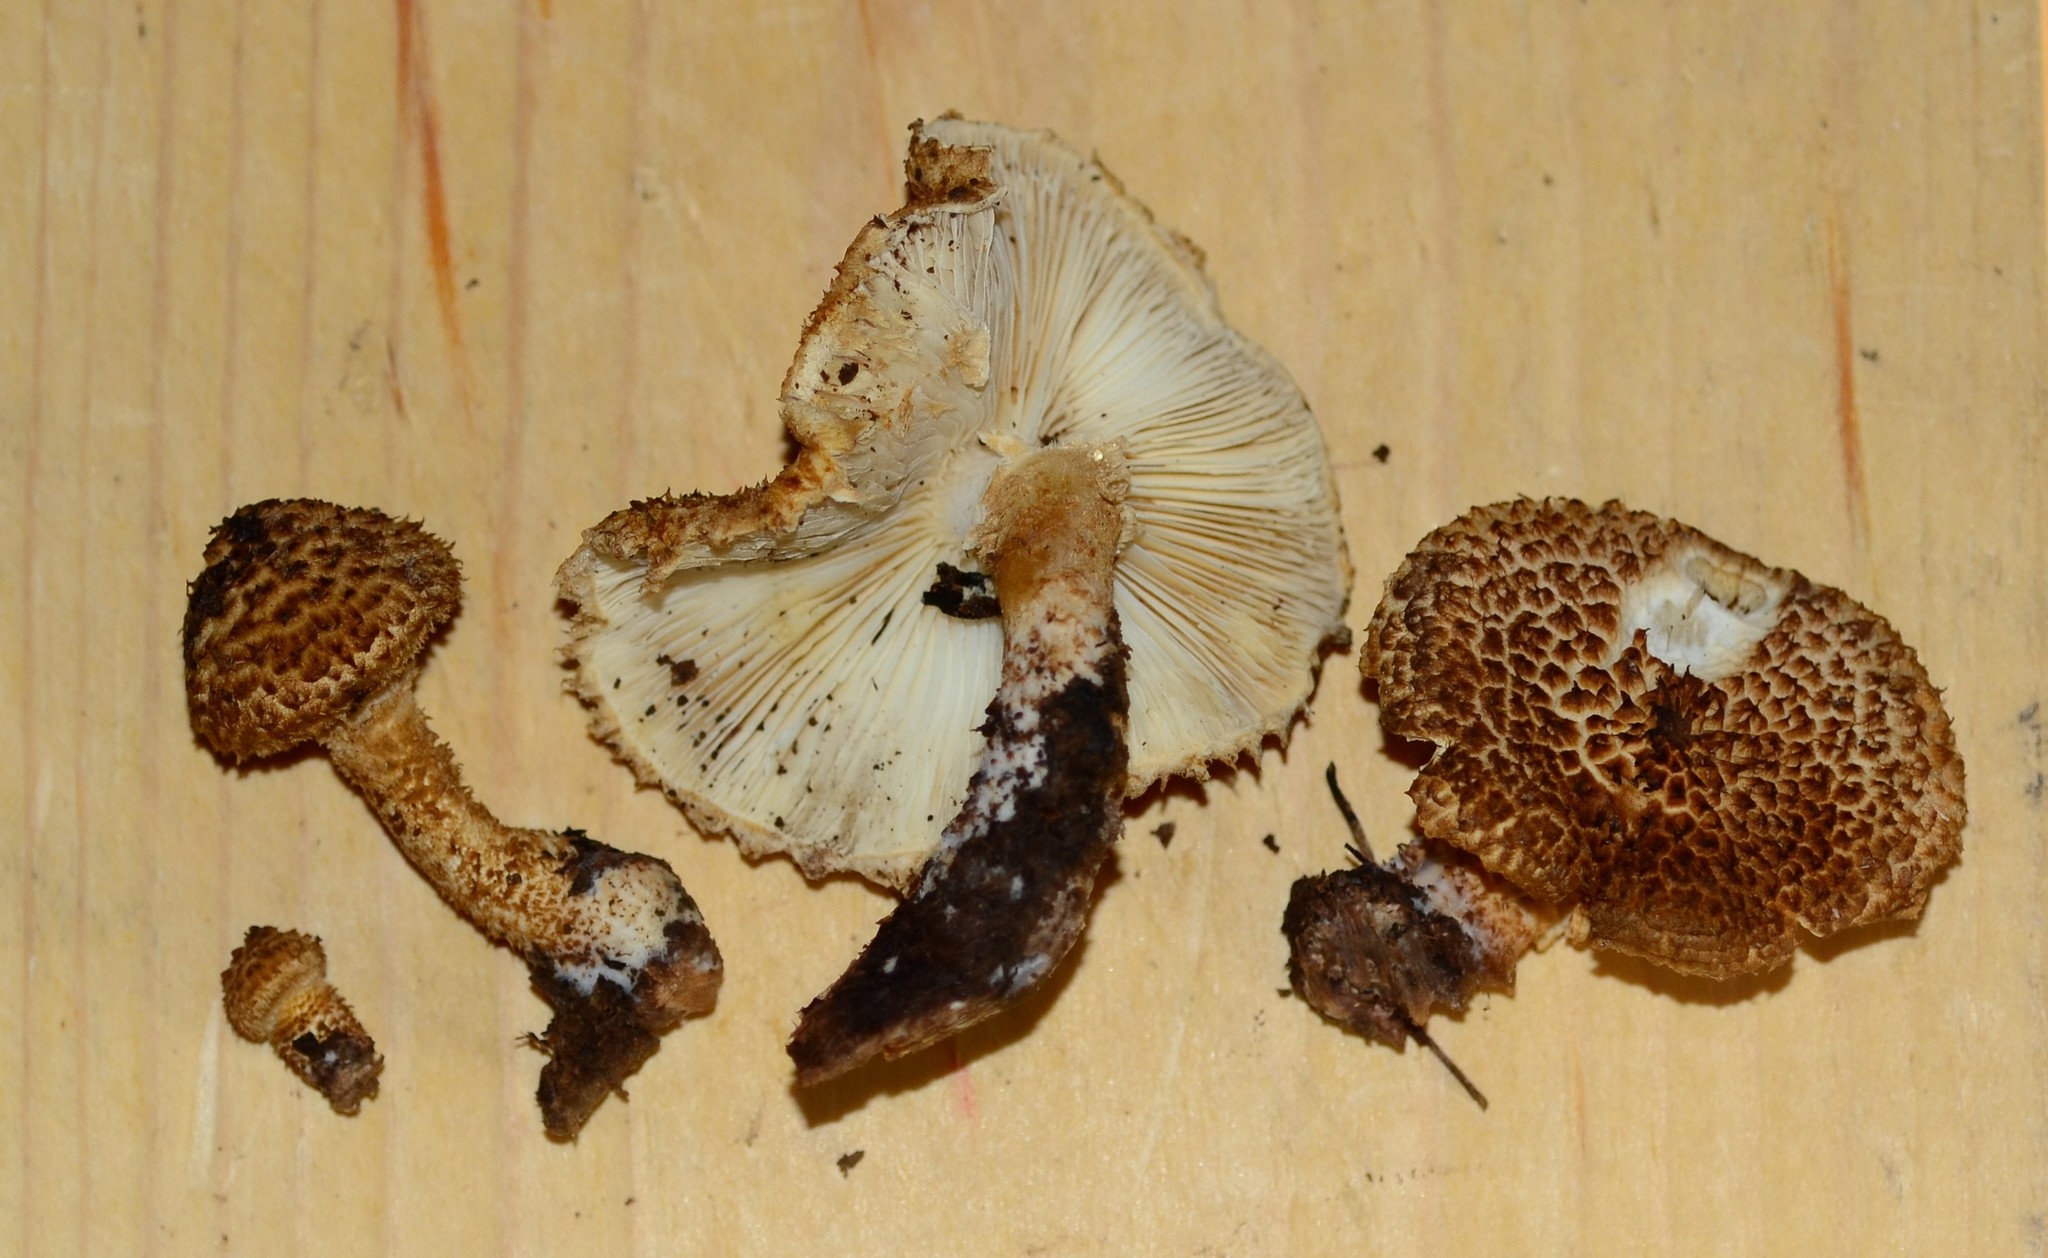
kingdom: Fungi
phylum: Basidiomycota
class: Agaricomycetes
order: Agaricales
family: Agaricaceae
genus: Leucopholiota
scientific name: Leucopholiota decorosa
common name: Decorated pholiota
